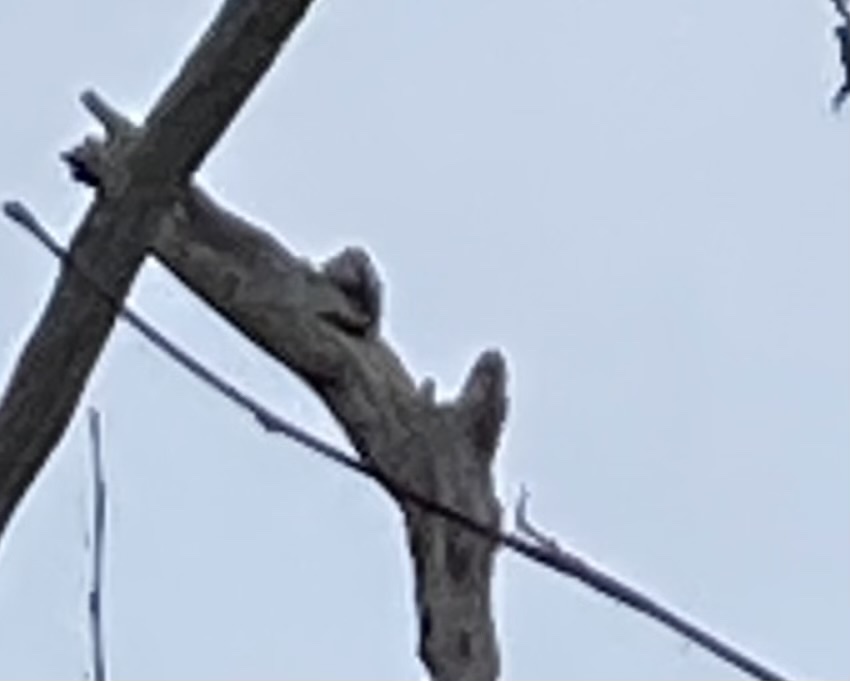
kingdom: Animalia
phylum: Chordata
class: Aves
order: Piciformes
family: Picidae
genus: Dendrocopos
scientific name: Dendrocopos major
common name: Great spotted woodpecker
